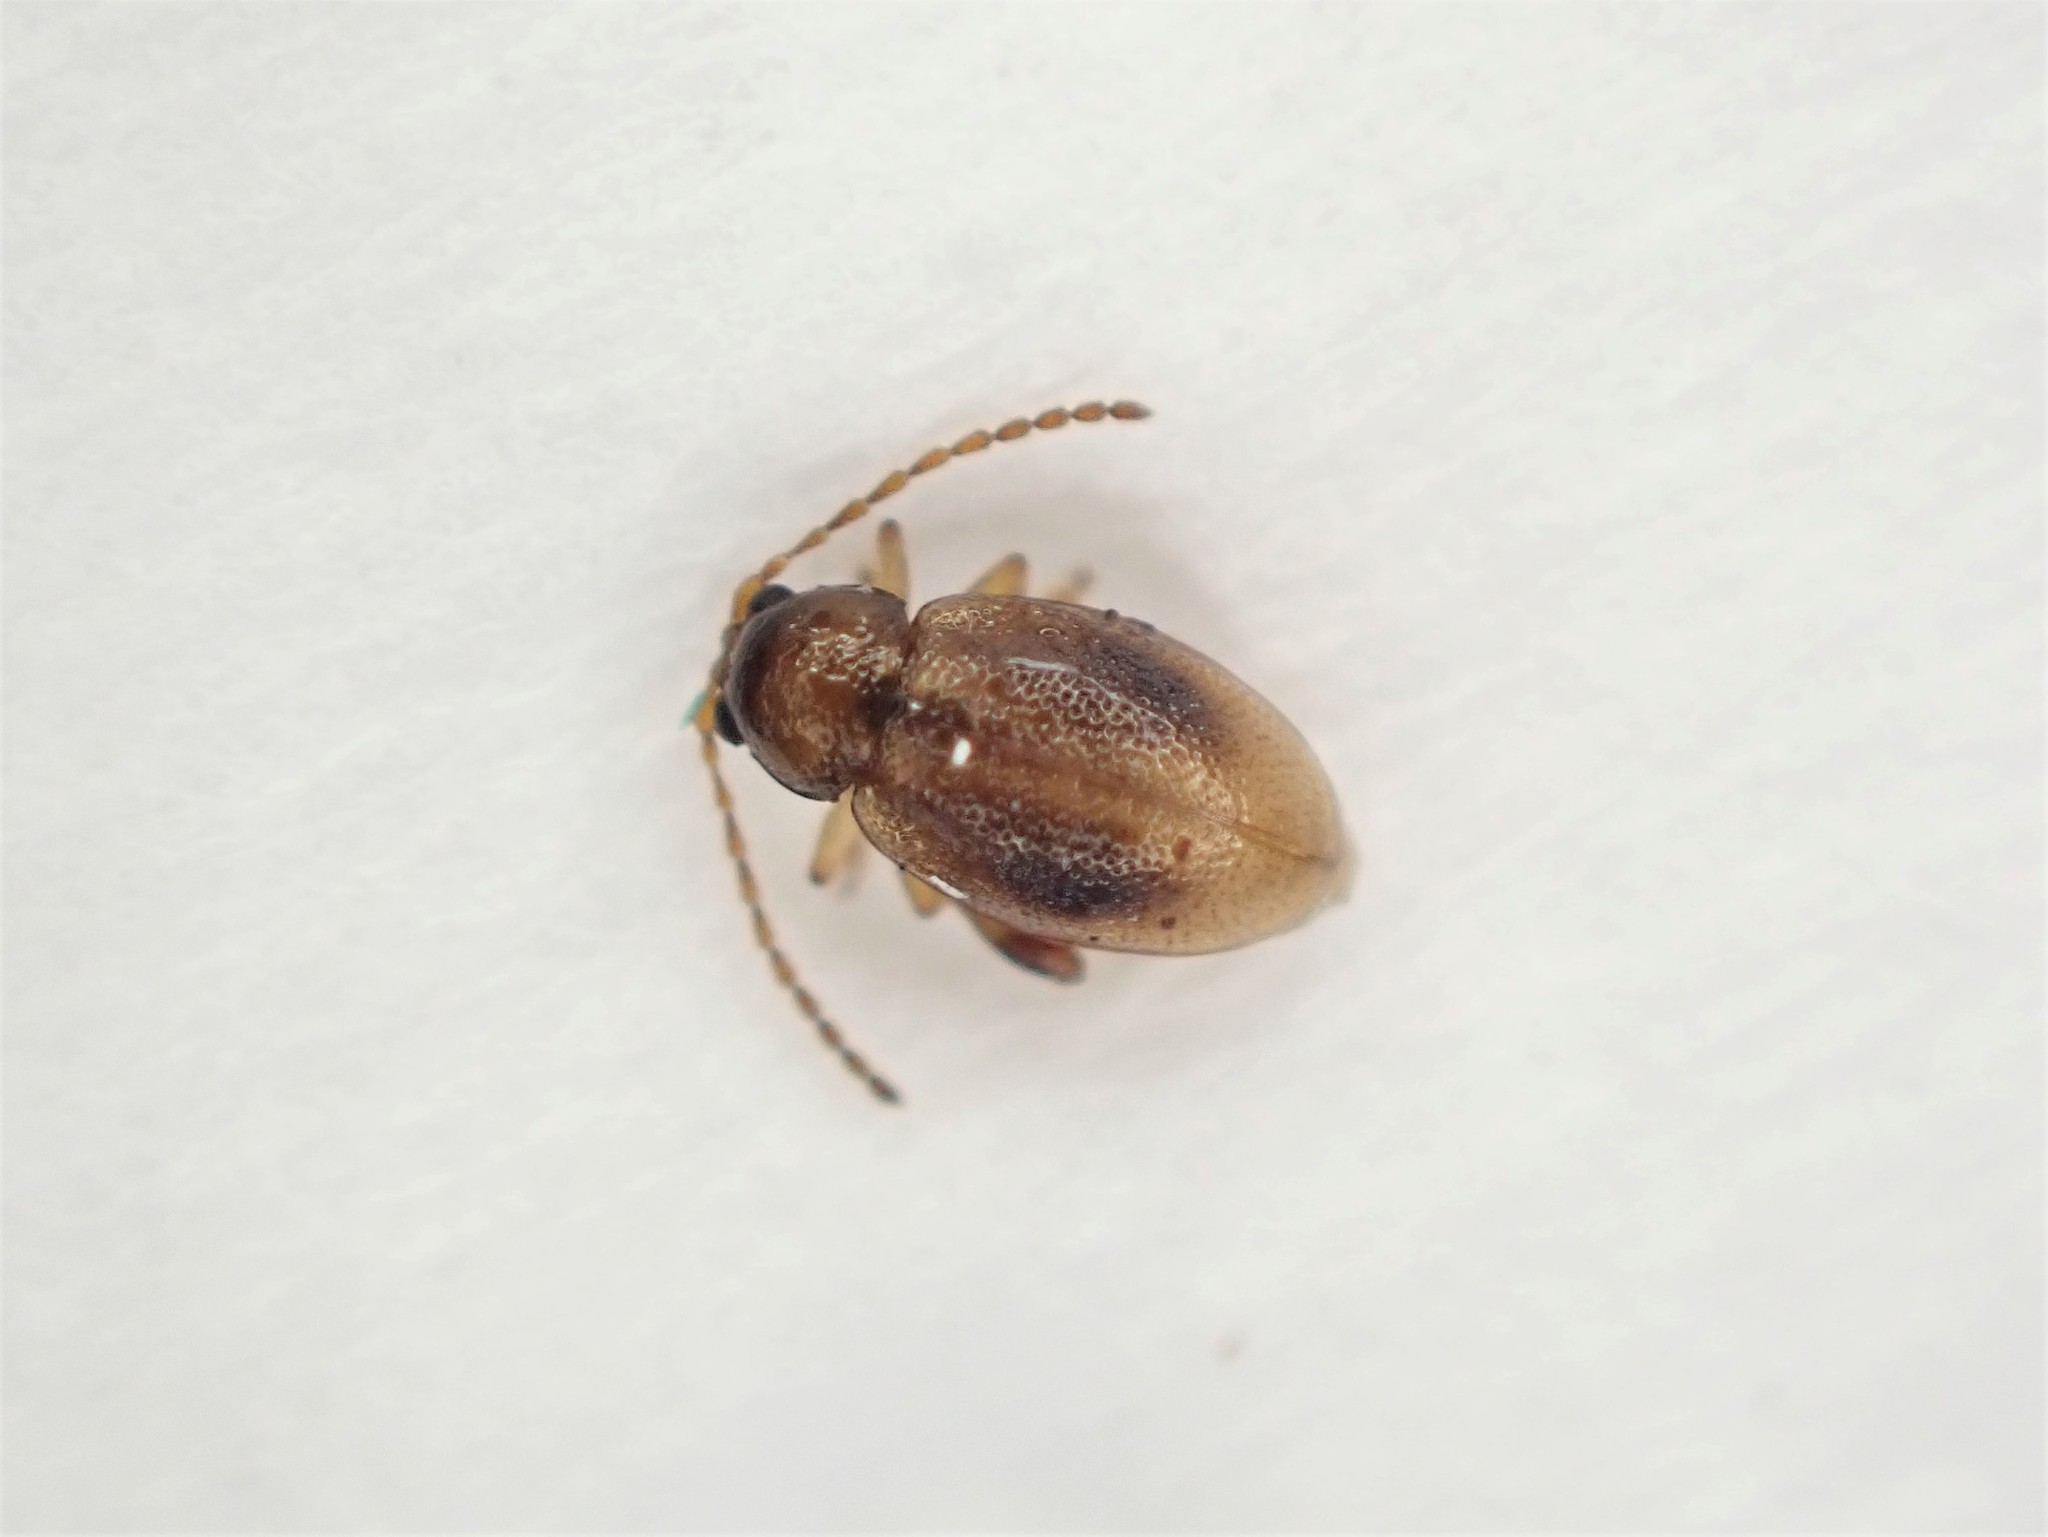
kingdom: Animalia
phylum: Arthropoda
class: Insecta
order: Coleoptera
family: Chrysomelidae
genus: Trachytetra
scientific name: Trachytetra
